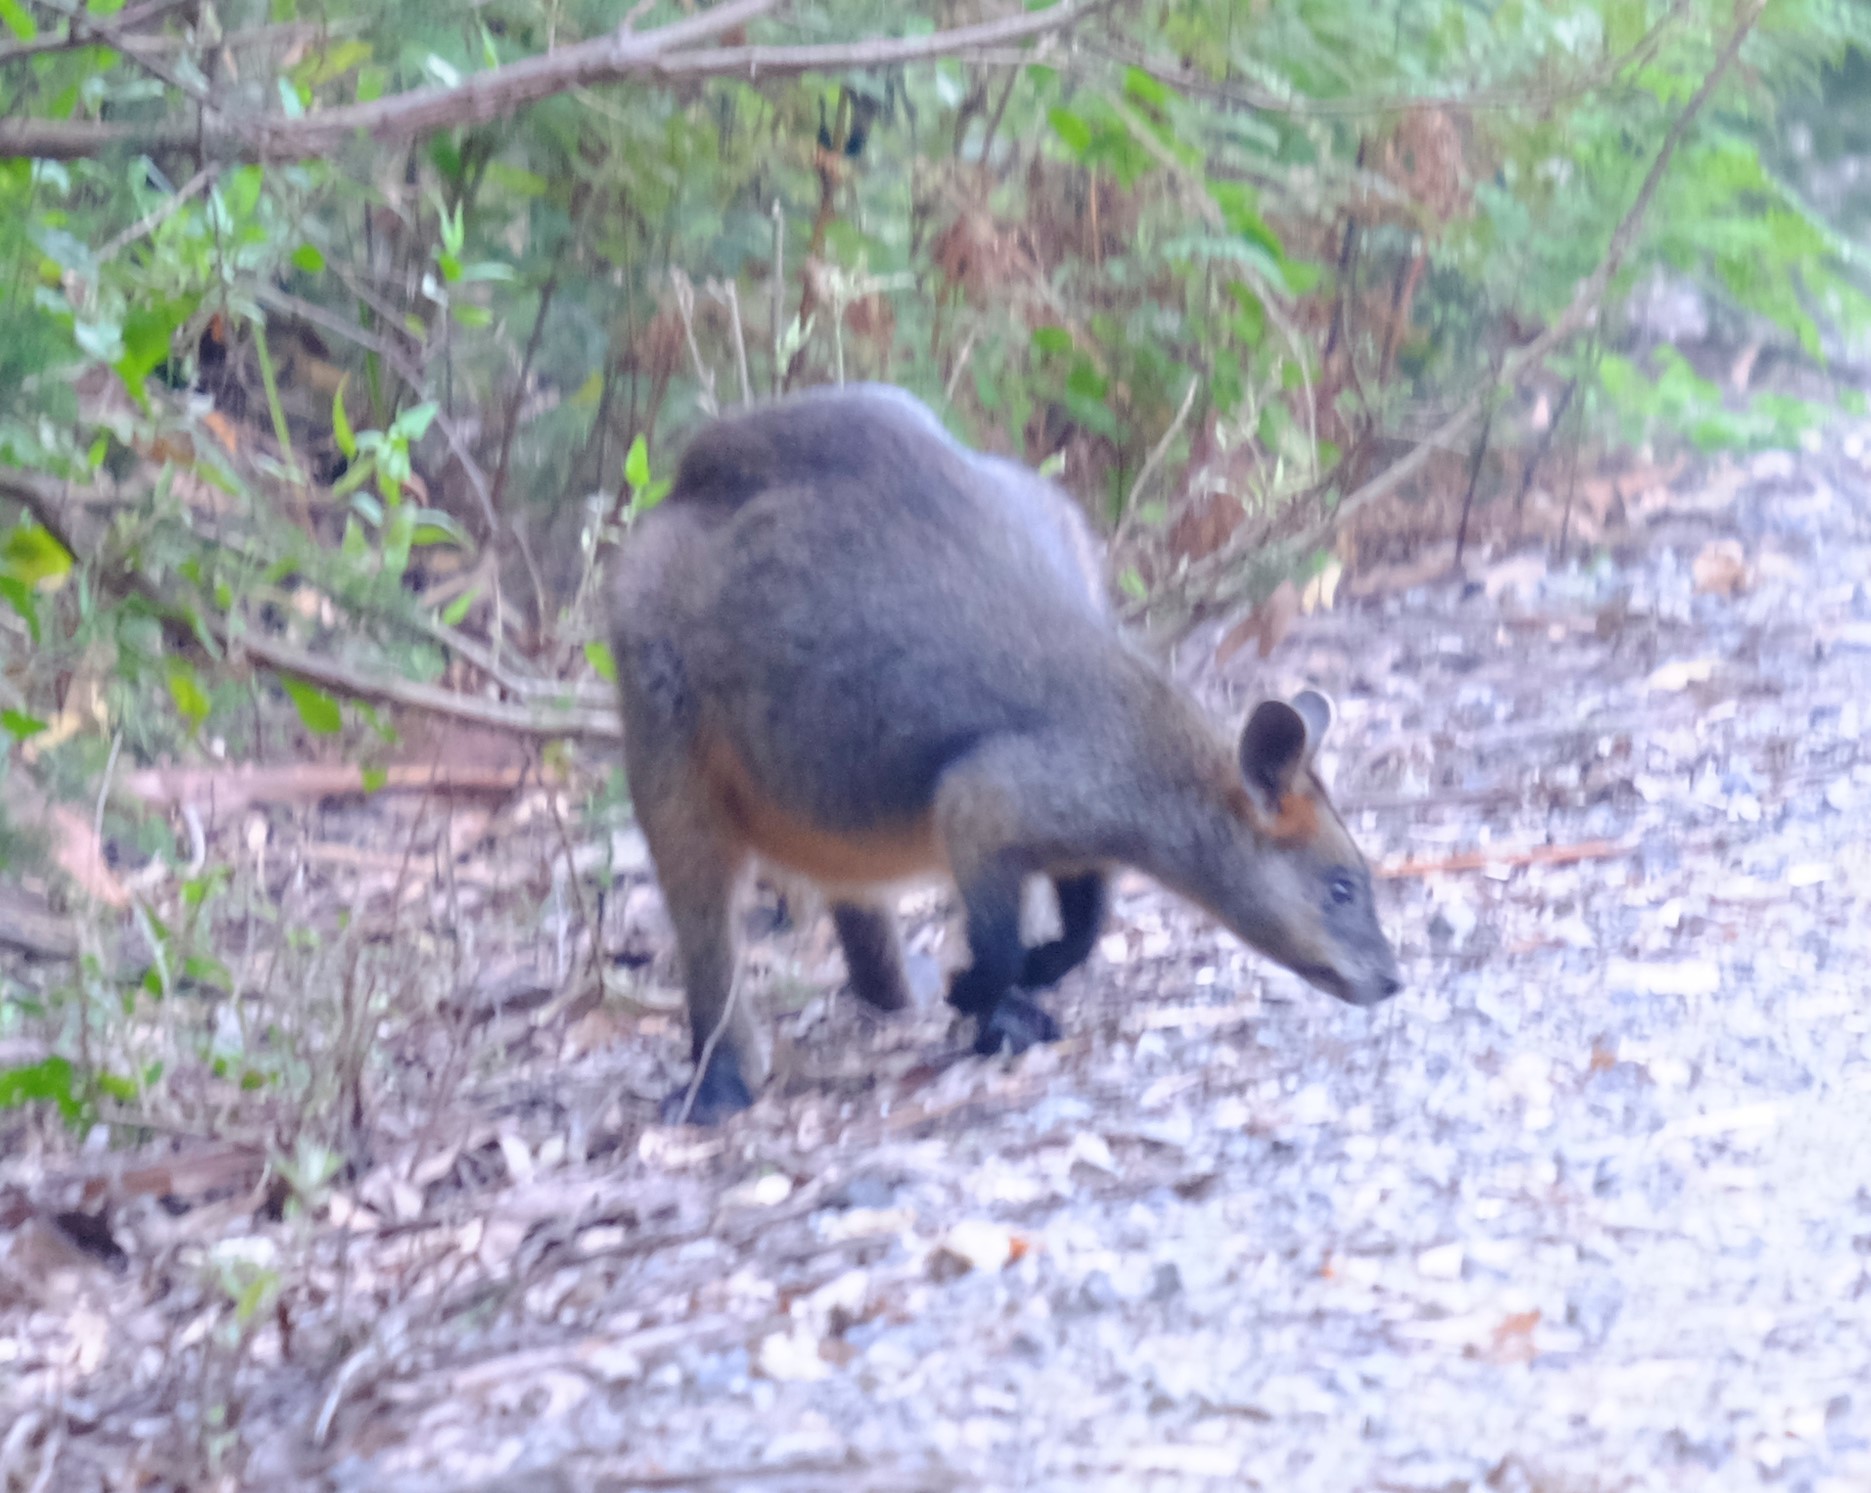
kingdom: Animalia
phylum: Chordata
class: Mammalia
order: Diprotodontia
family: Macropodidae
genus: Wallabia
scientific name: Wallabia bicolor
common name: Swamp wallaby
